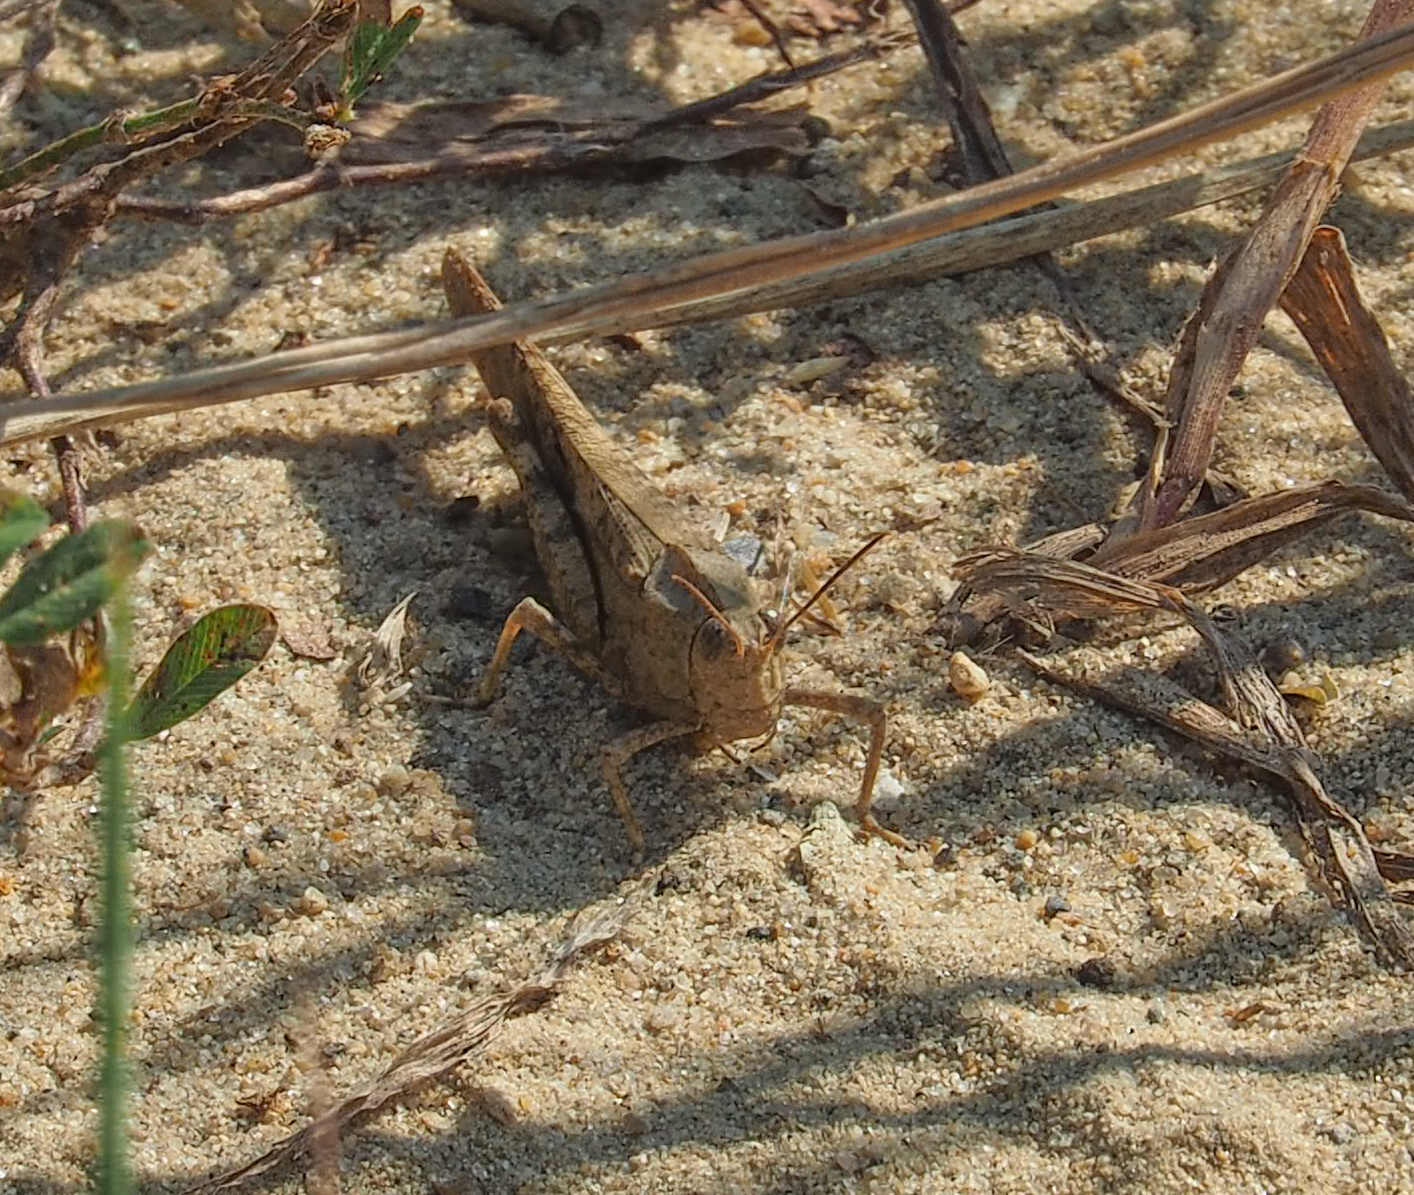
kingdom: Animalia
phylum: Arthropoda
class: Insecta
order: Orthoptera
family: Acrididae
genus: Dissosteira
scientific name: Dissosteira carolina
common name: Carolina grasshopper
